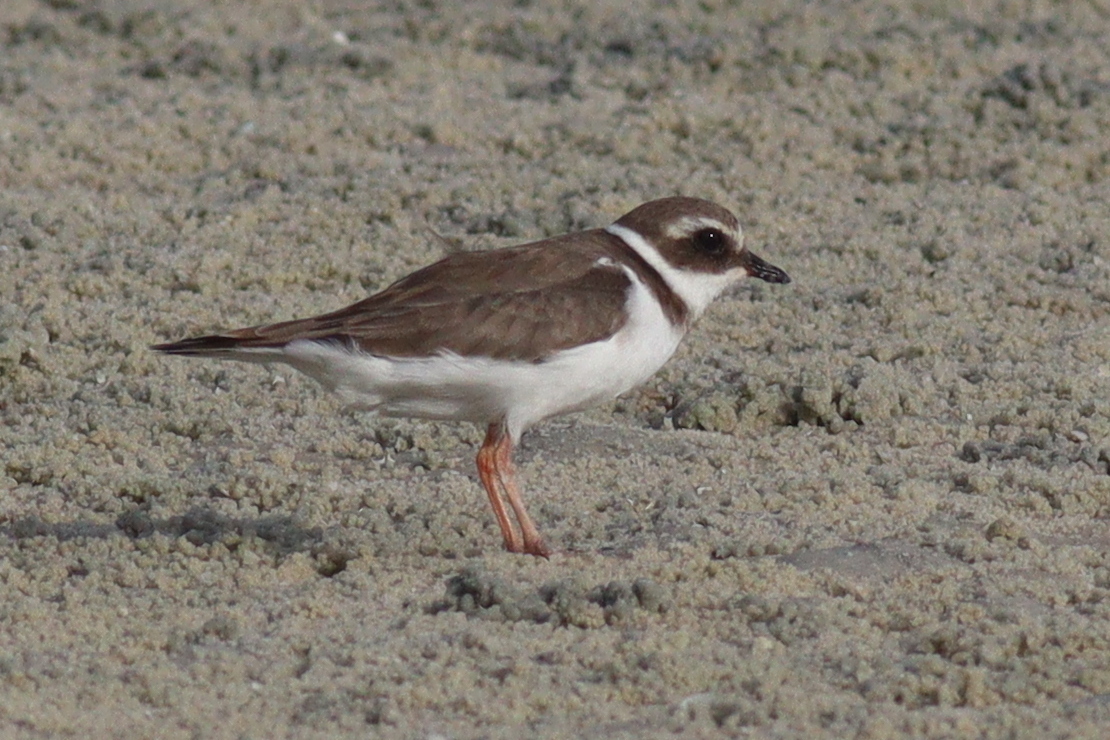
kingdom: Animalia
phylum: Chordata
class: Aves
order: Charadriiformes
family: Charadriidae
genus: Charadrius
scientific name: Charadrius hiaticula
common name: Common ringed plover
